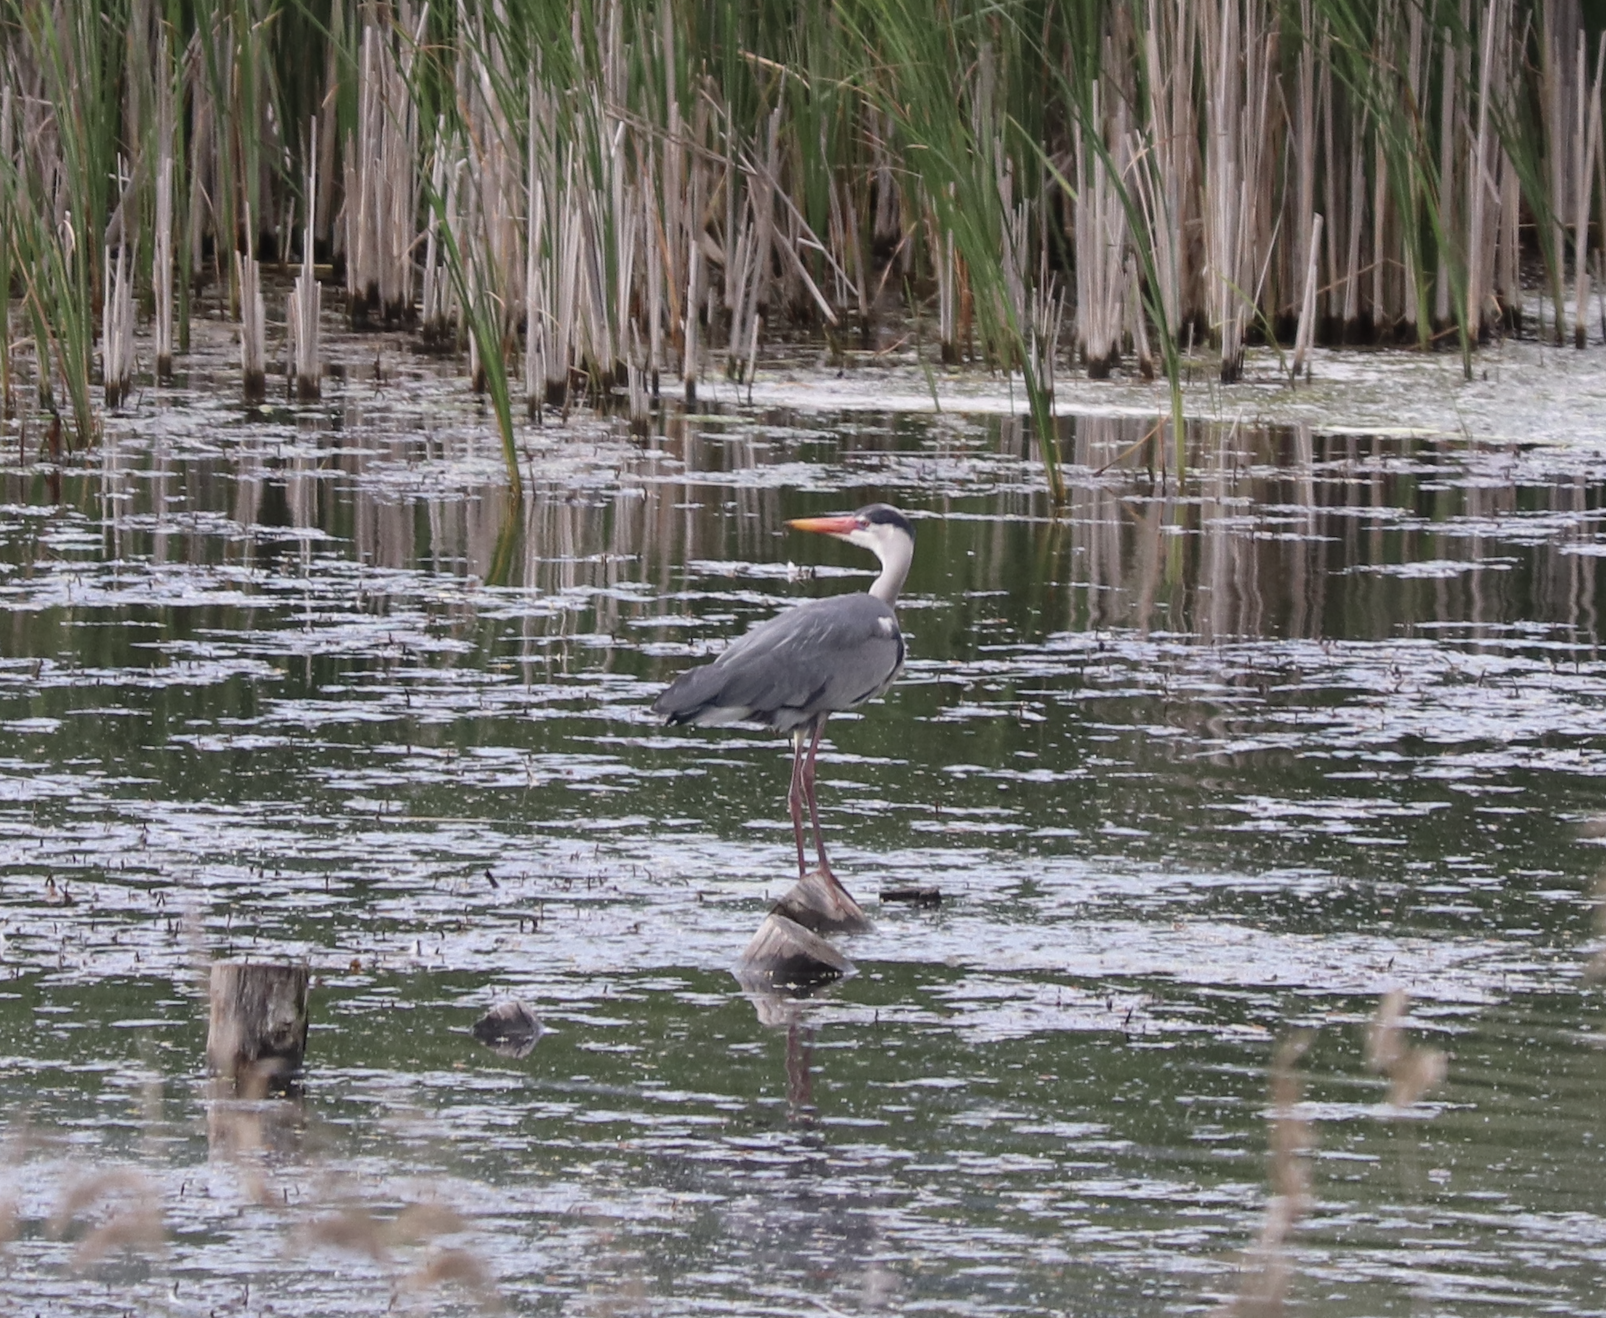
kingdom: Animalia
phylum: Chordata
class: Aves
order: Pelecaniformes
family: Ardeidae
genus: Ardea
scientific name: Ardea cinerea
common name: Grey heron
